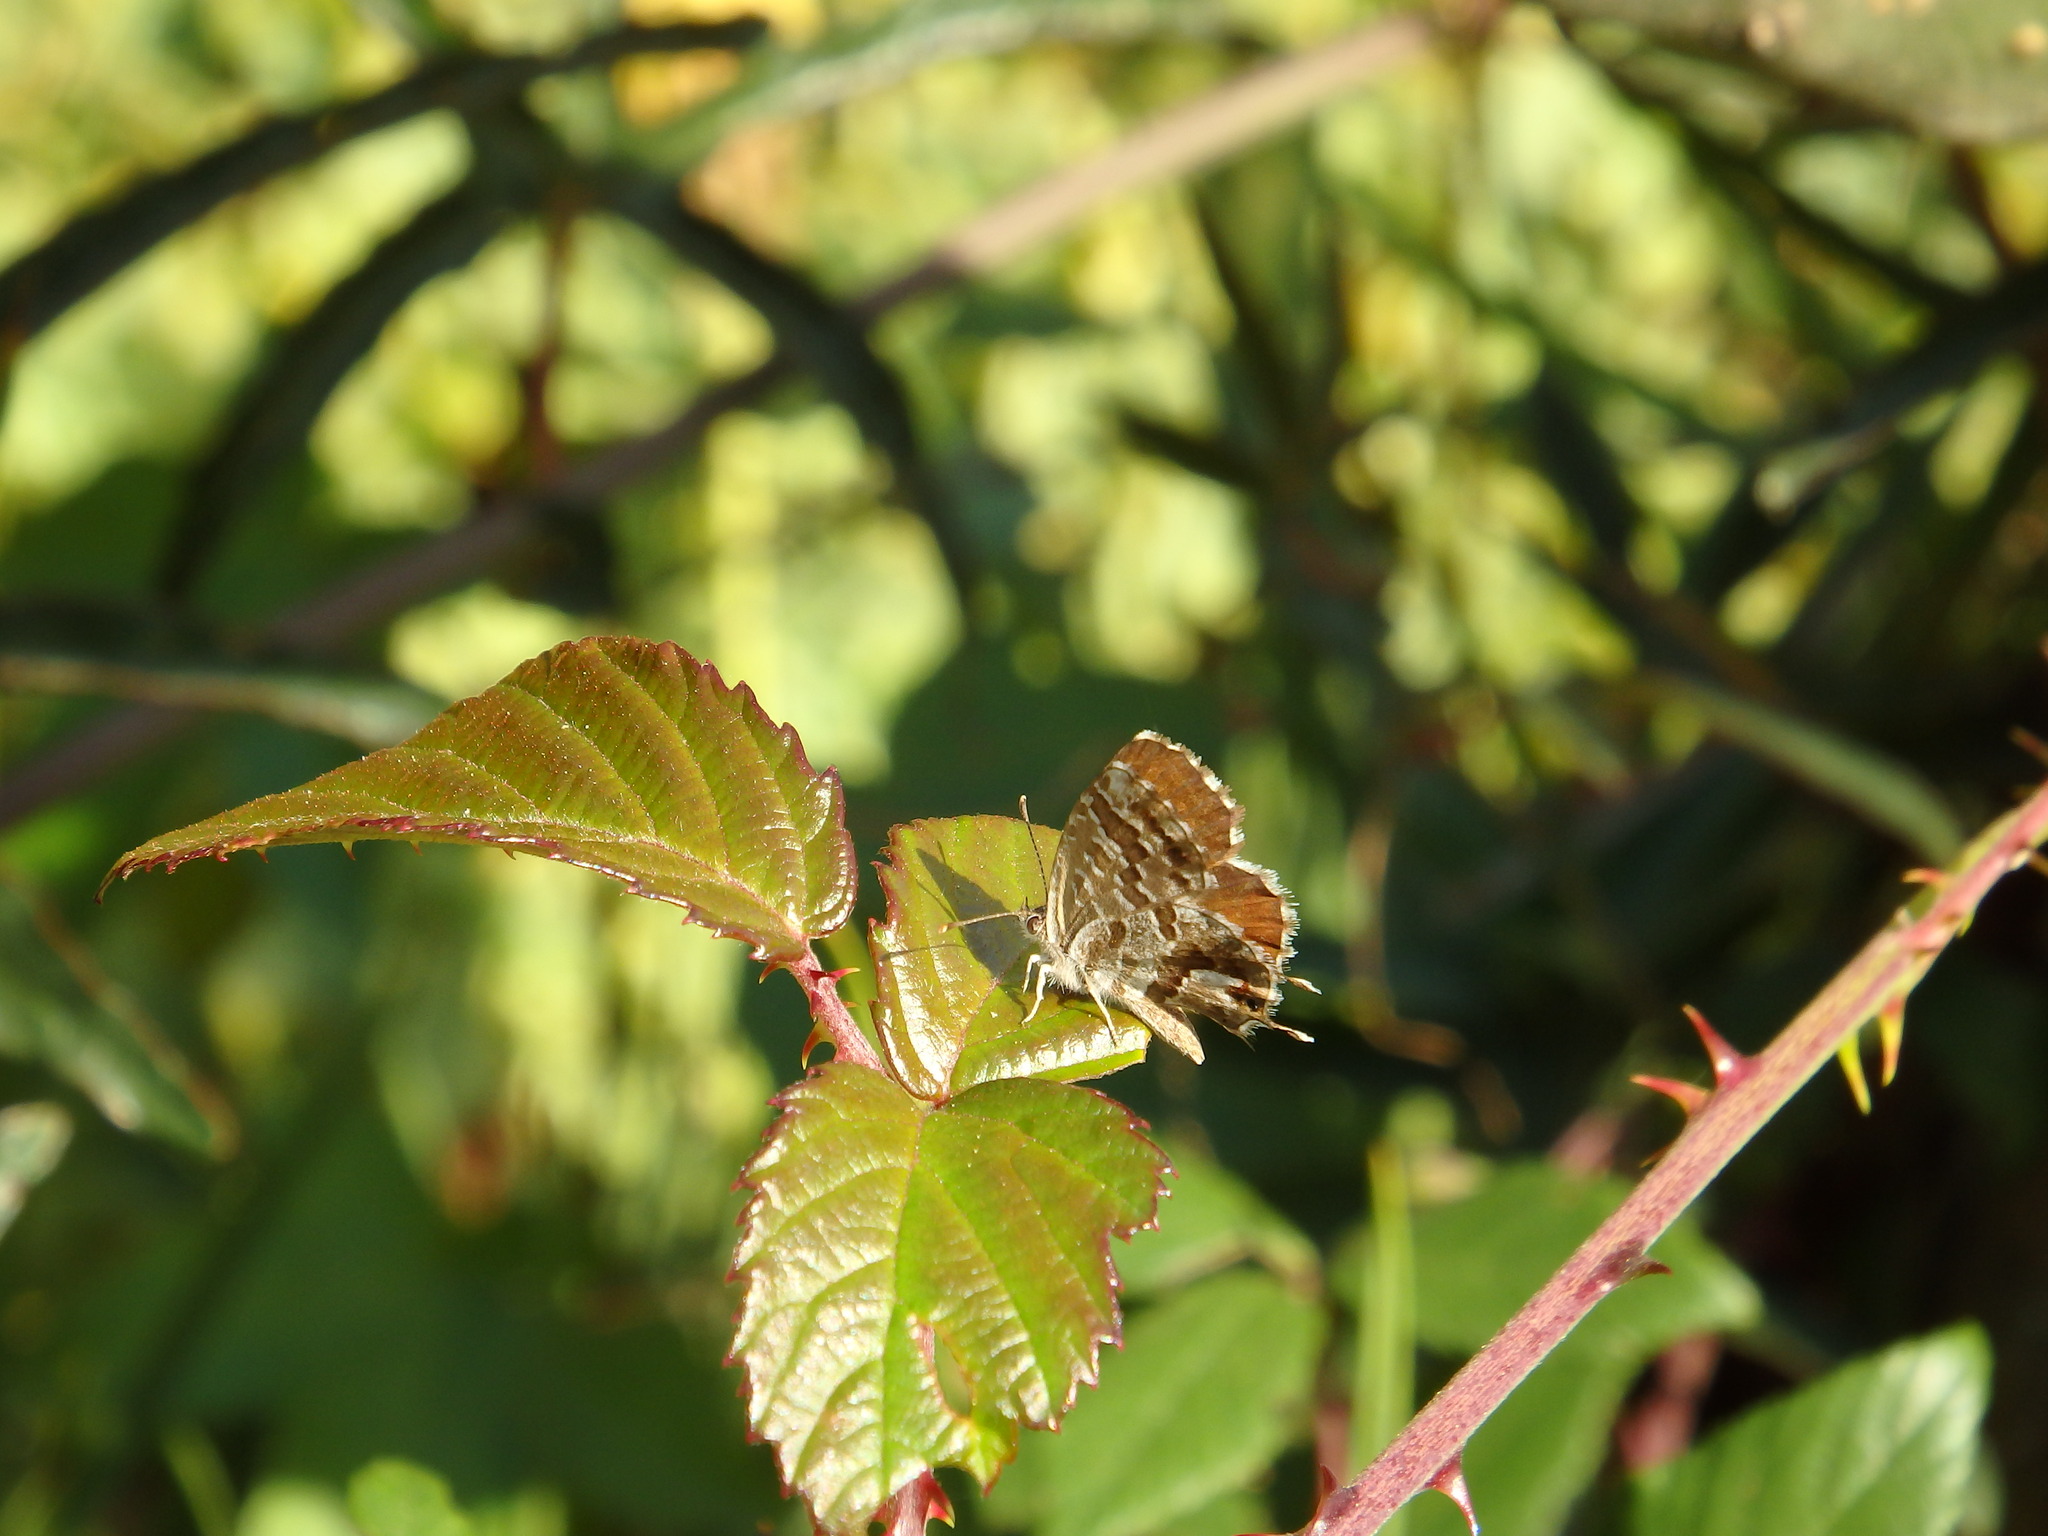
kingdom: Animalia
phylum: Arthropoda
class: Insecta
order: Lepidoptera
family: Lycaenidae
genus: Cacyreus
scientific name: Cacyreus marshalli
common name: Geranium bronze
